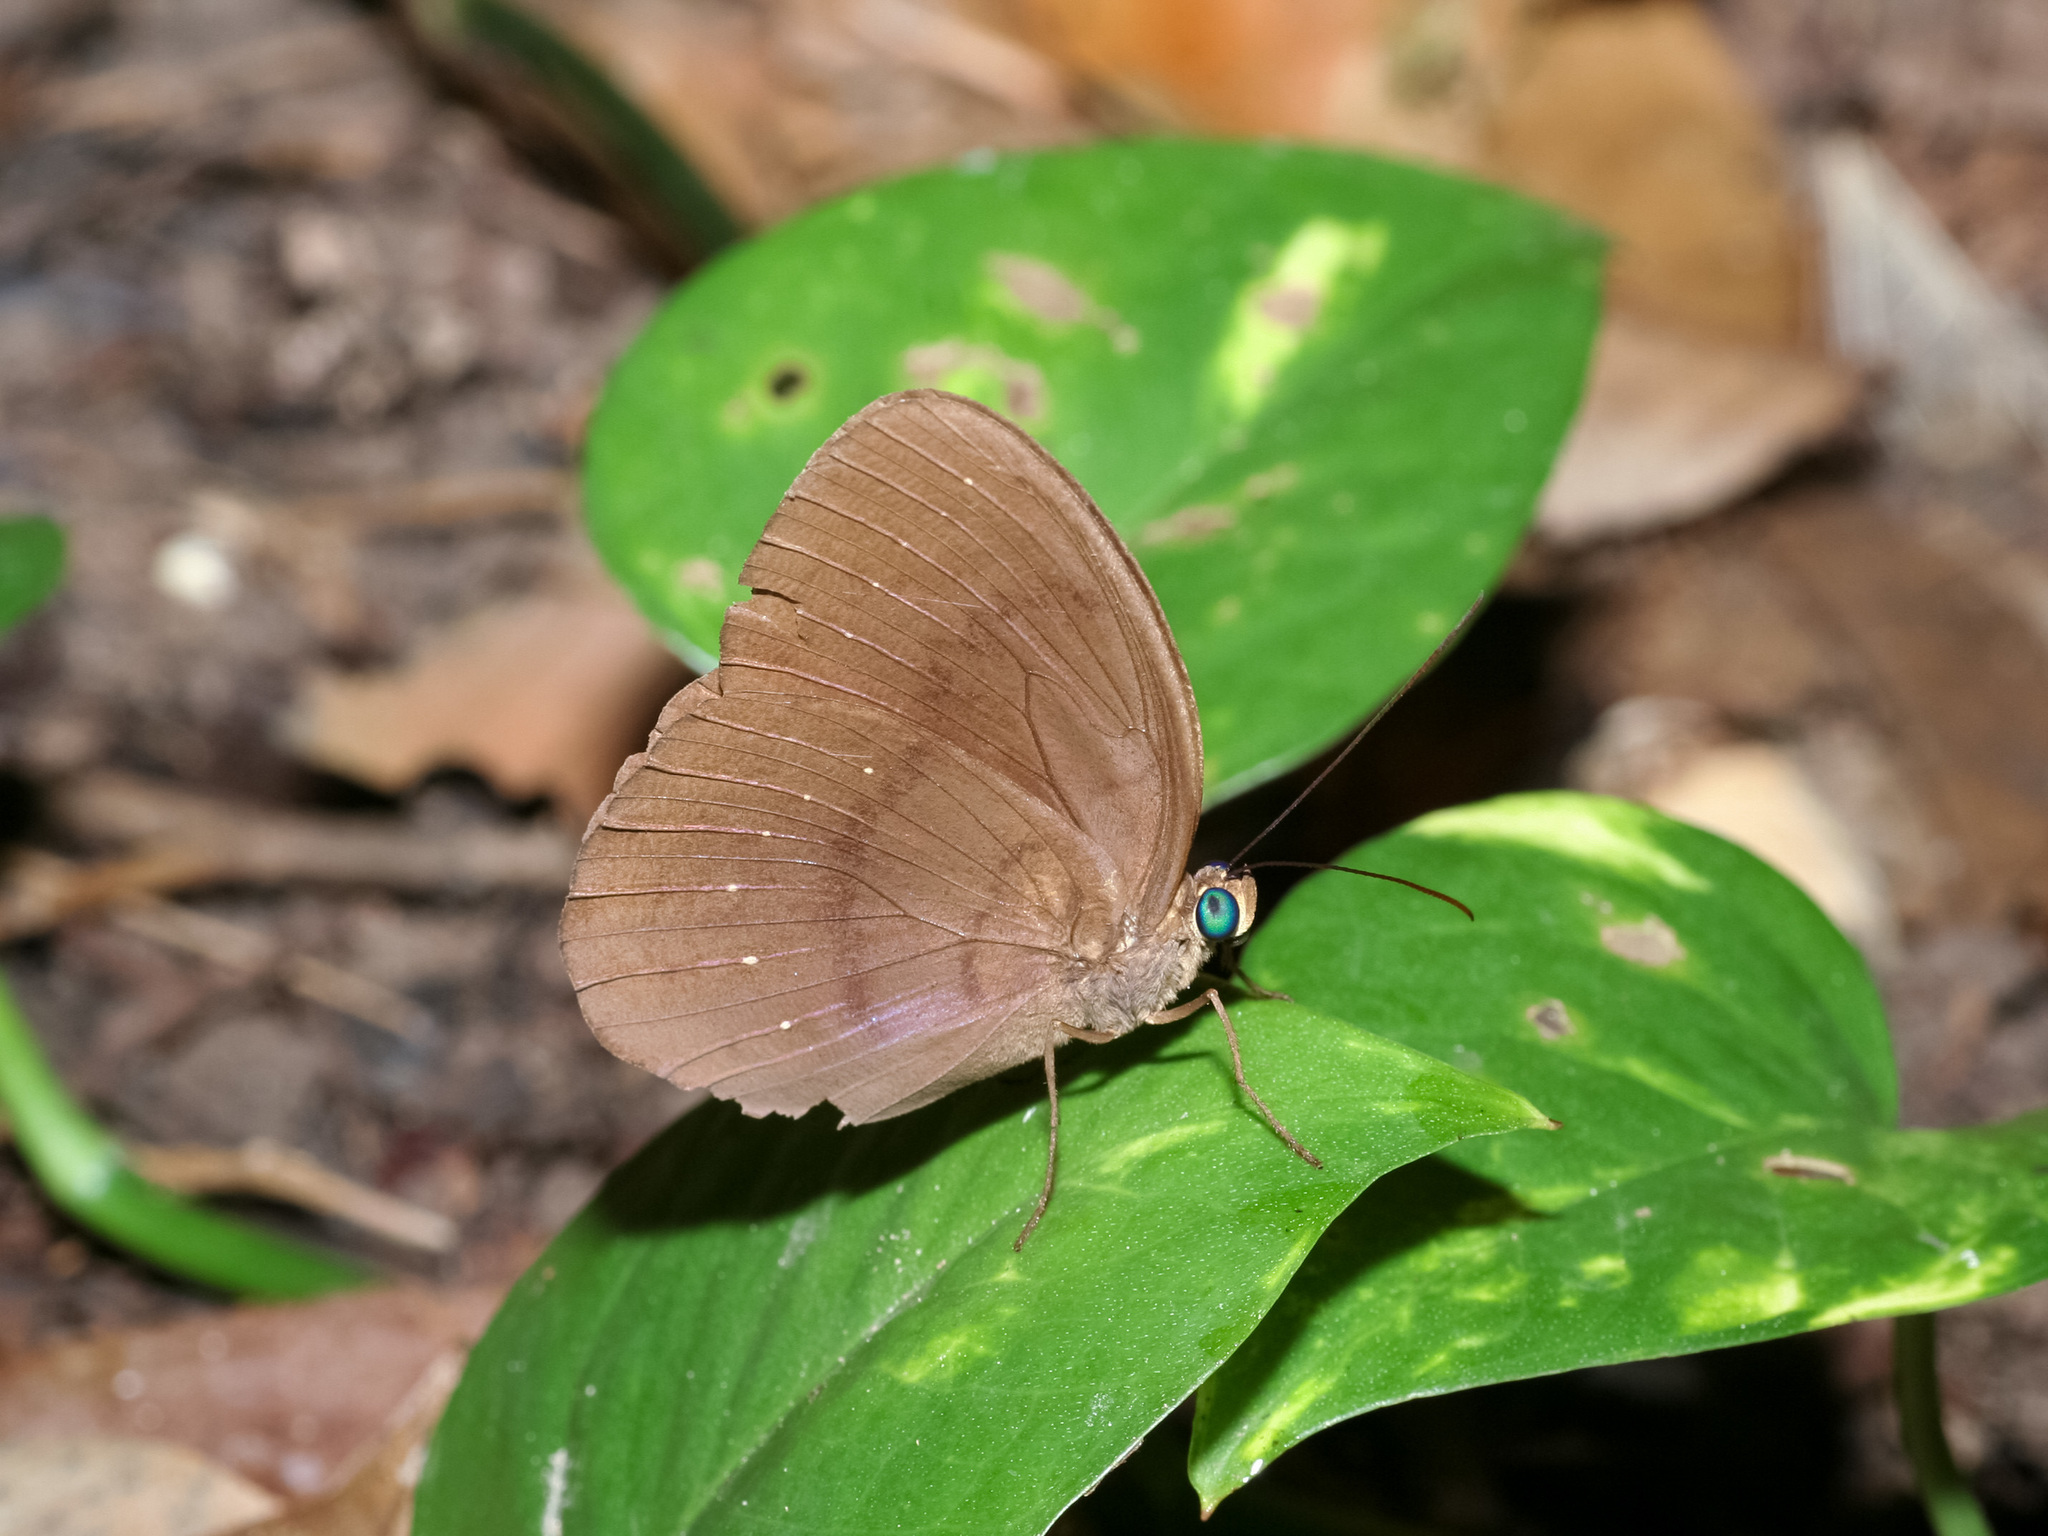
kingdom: Animalia
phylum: Arthropoda
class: Insecta
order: Lepidoptera
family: Nymphalidae
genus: Faunis
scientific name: Faunis canens
